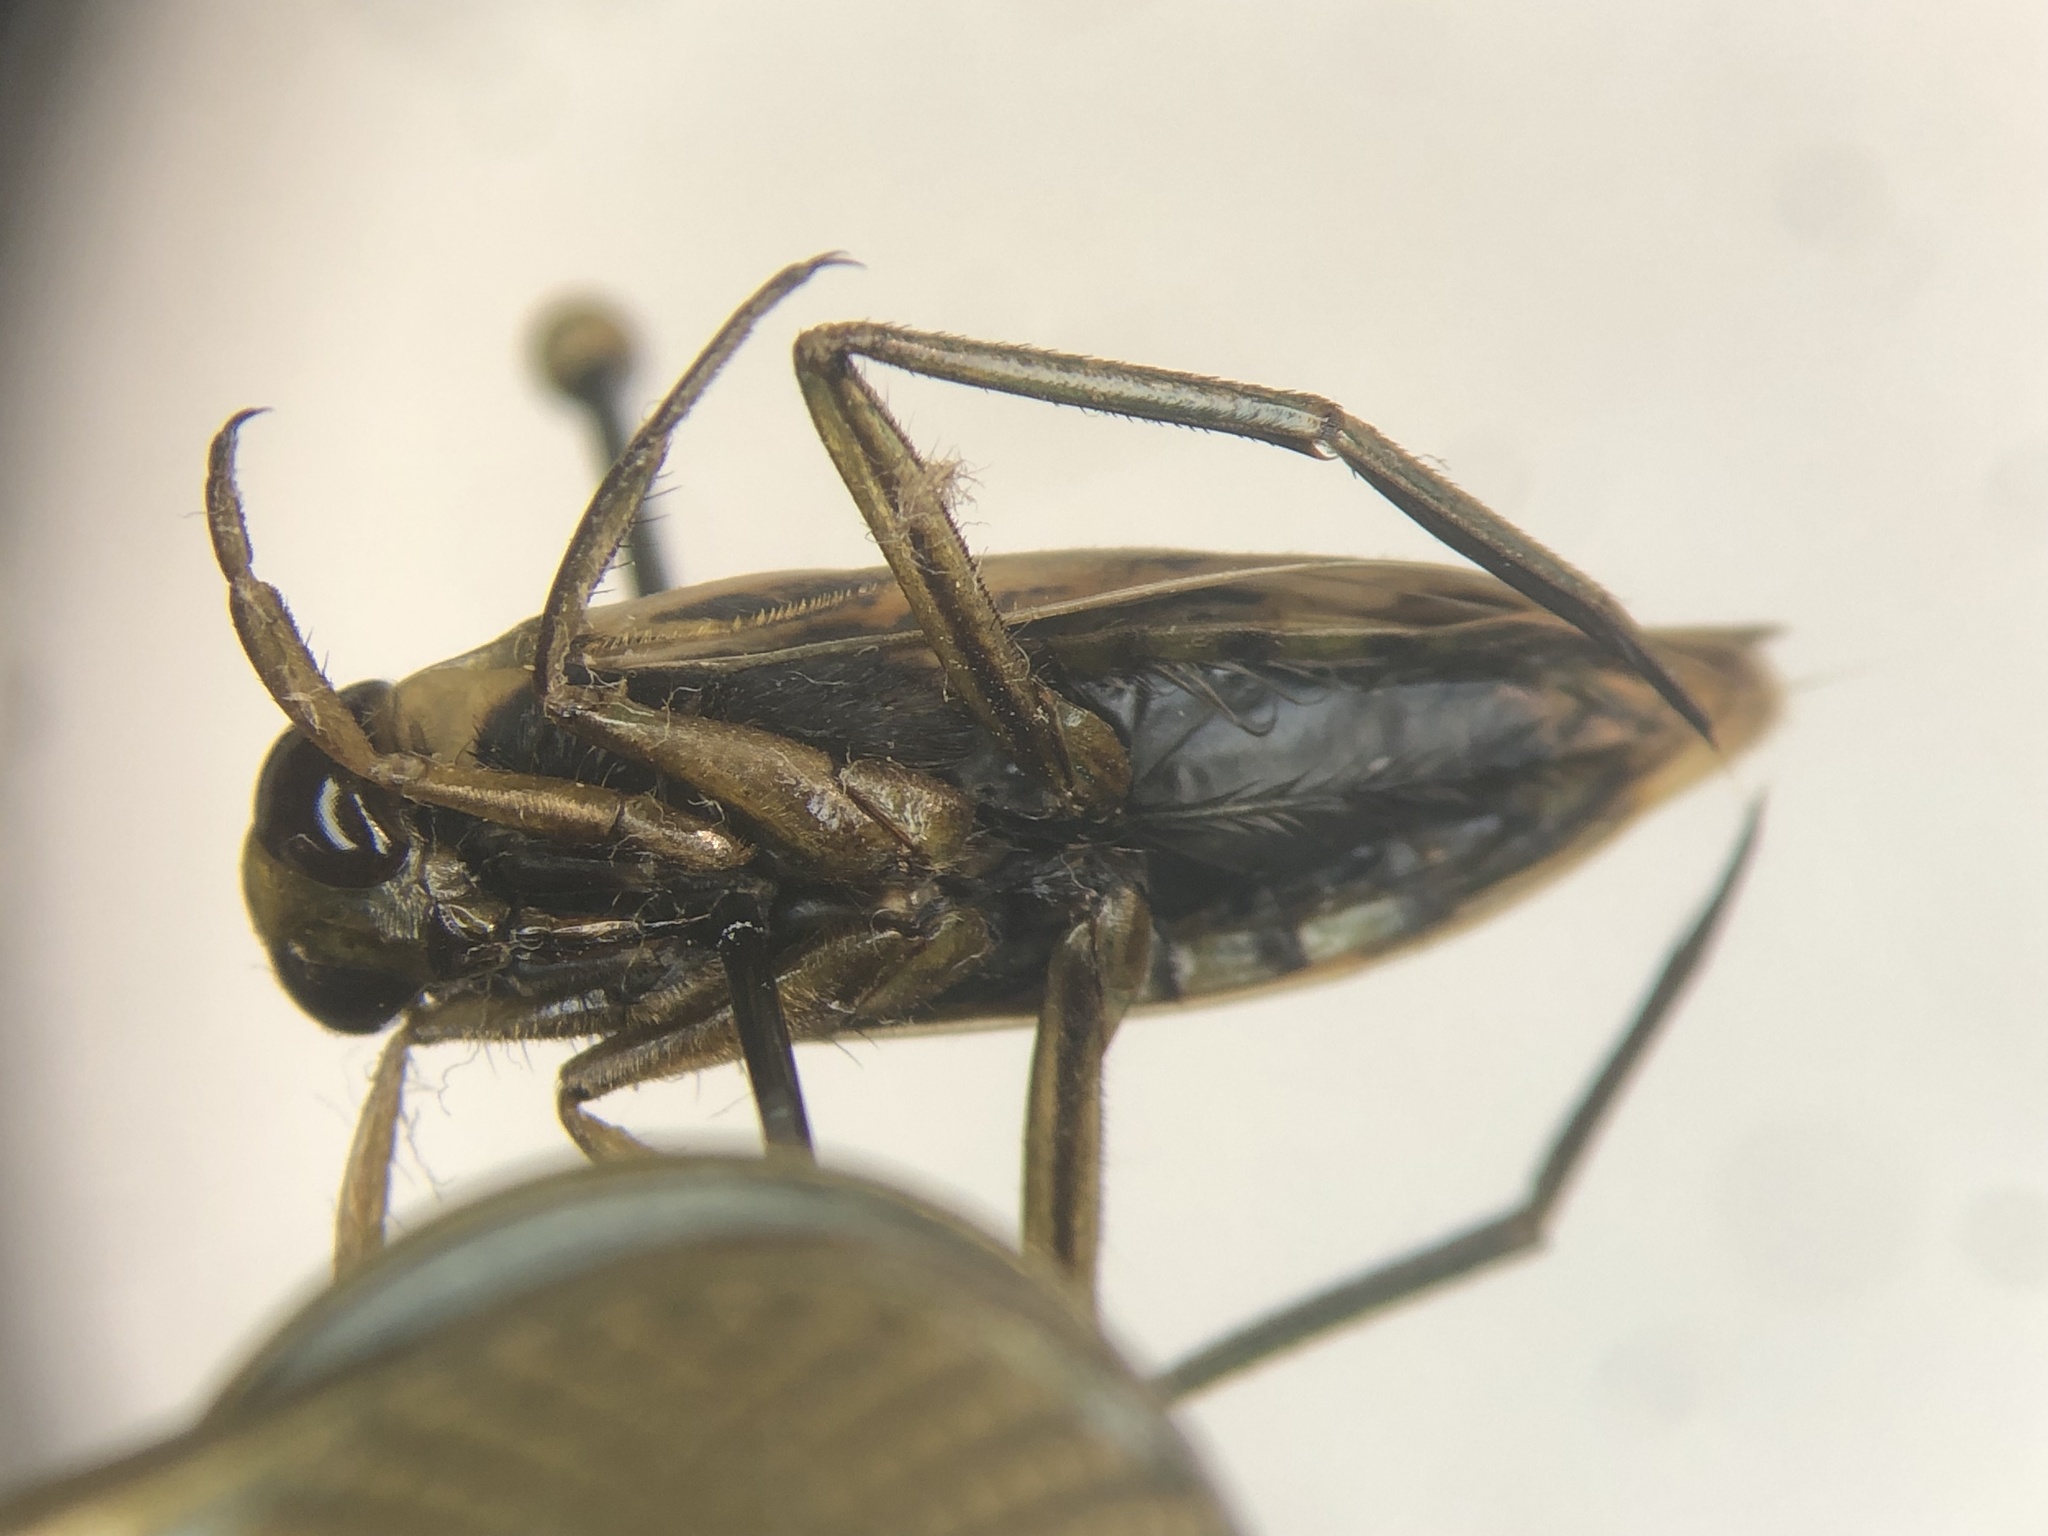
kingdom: Animalia
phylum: Arthropoda
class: Insecta
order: Hemiptera
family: Notonectidae
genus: Notonecta
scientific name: Notonecta insulata
